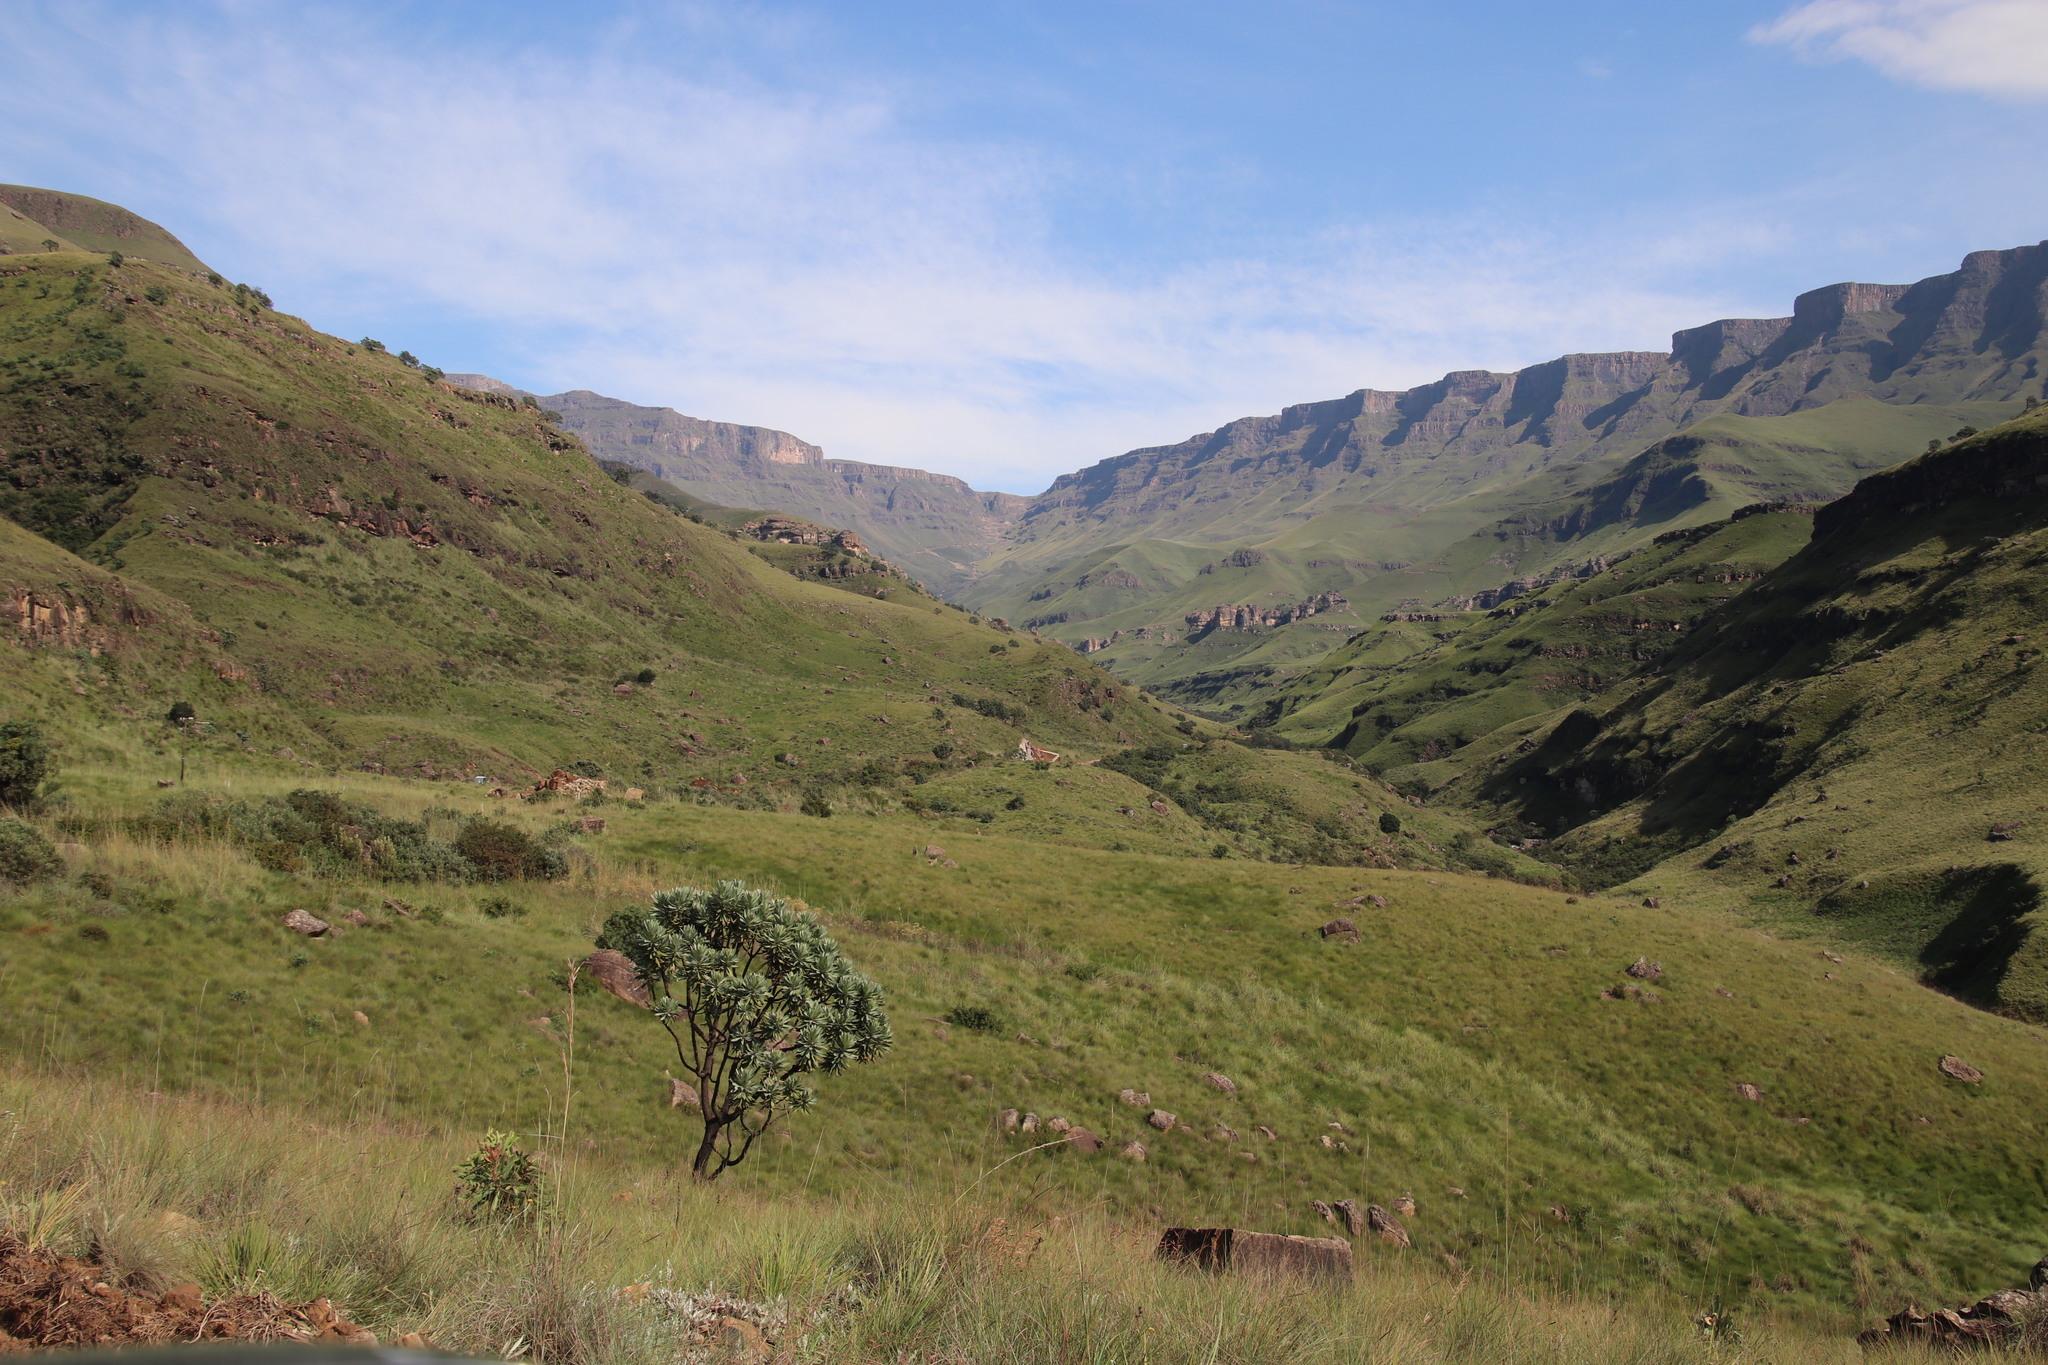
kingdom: Plantae
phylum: Tracheophyta
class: Magnoliopsida
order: Proteales
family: Proteaceae
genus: Protea
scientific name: Protea roupelliae
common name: Silver sugarbush
